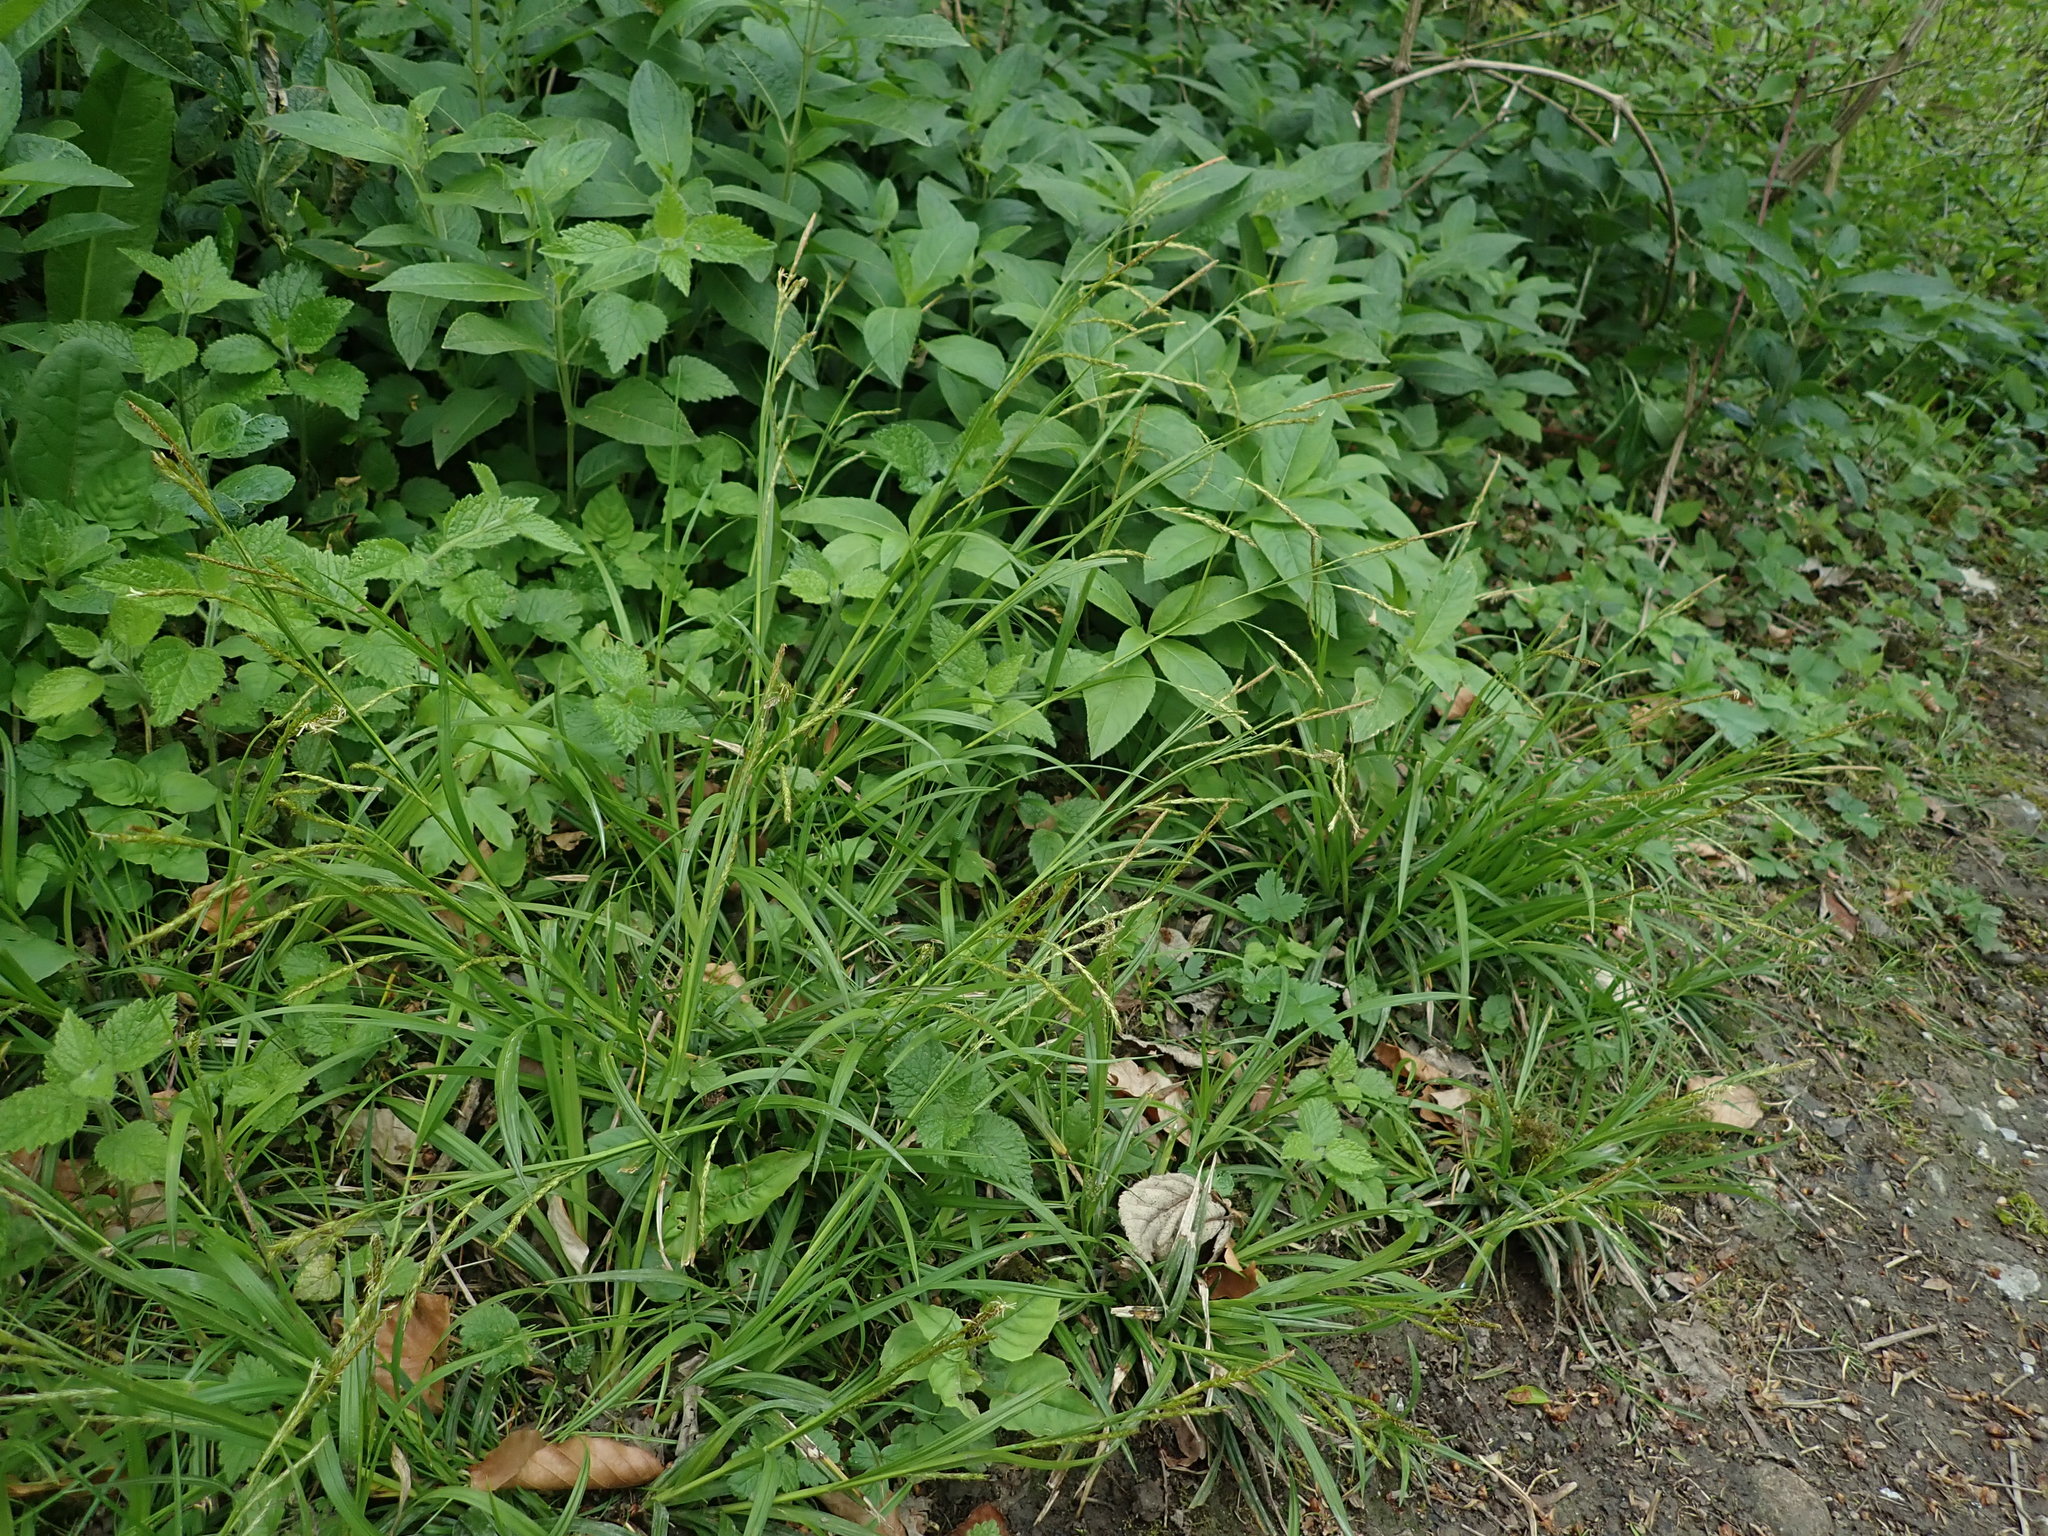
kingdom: Plantae
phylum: Tracheophyta
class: Liliopsida
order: Poales
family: Cyperaceae
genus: Carex
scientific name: Carex sylvatica
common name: Wood-sedge
